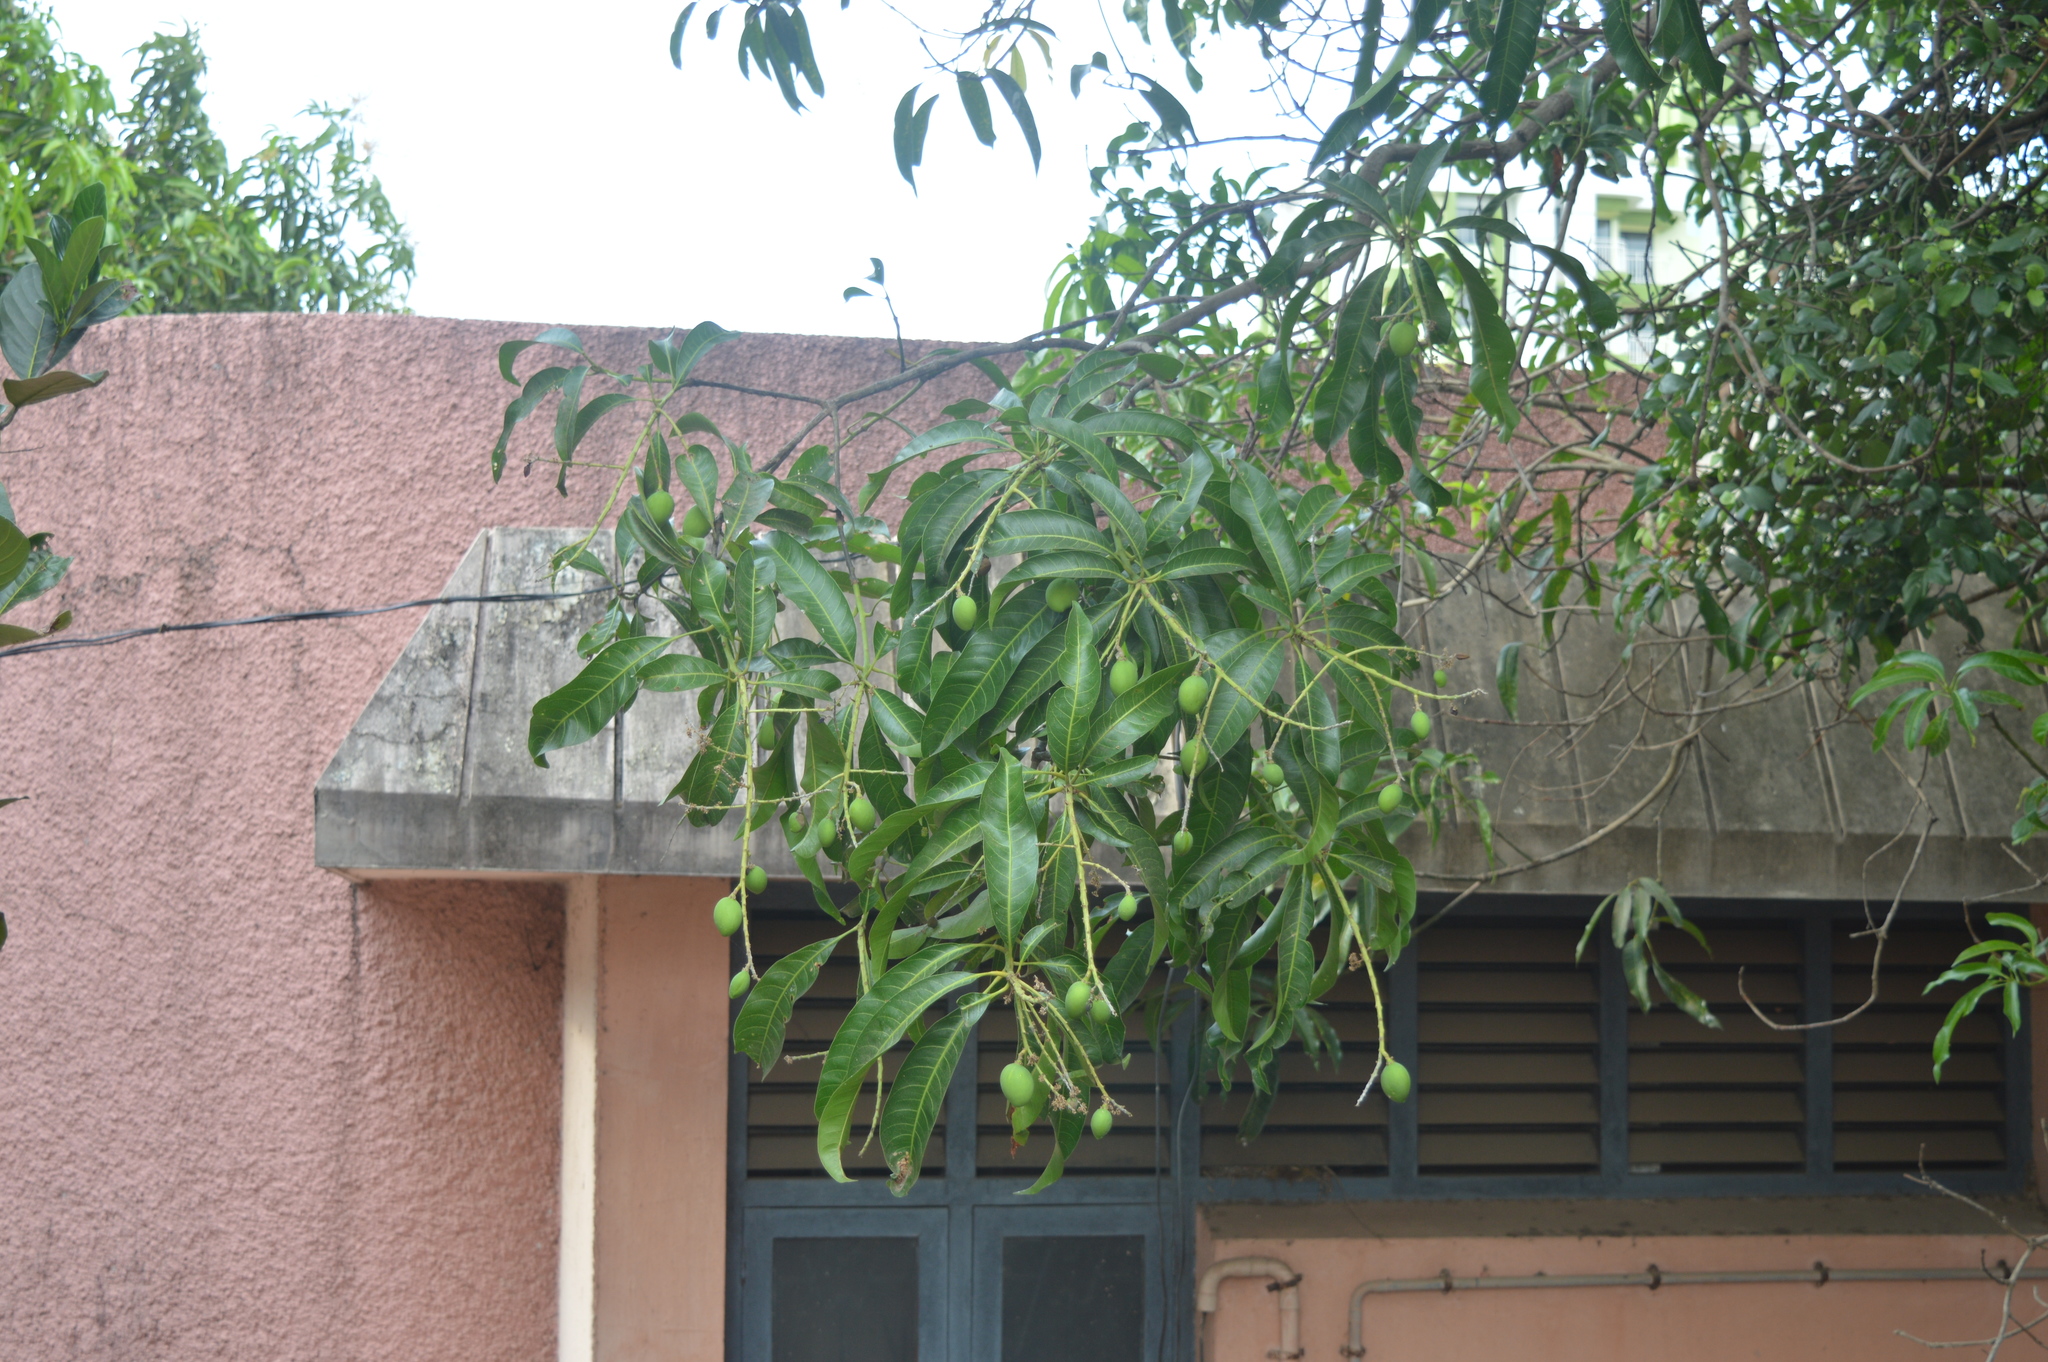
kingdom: Plantae
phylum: Tracheophyta
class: Magnoliopsida
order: Sapindales
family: Anacardiaceae
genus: Mangifera
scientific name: Mangifera indica
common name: Mango
